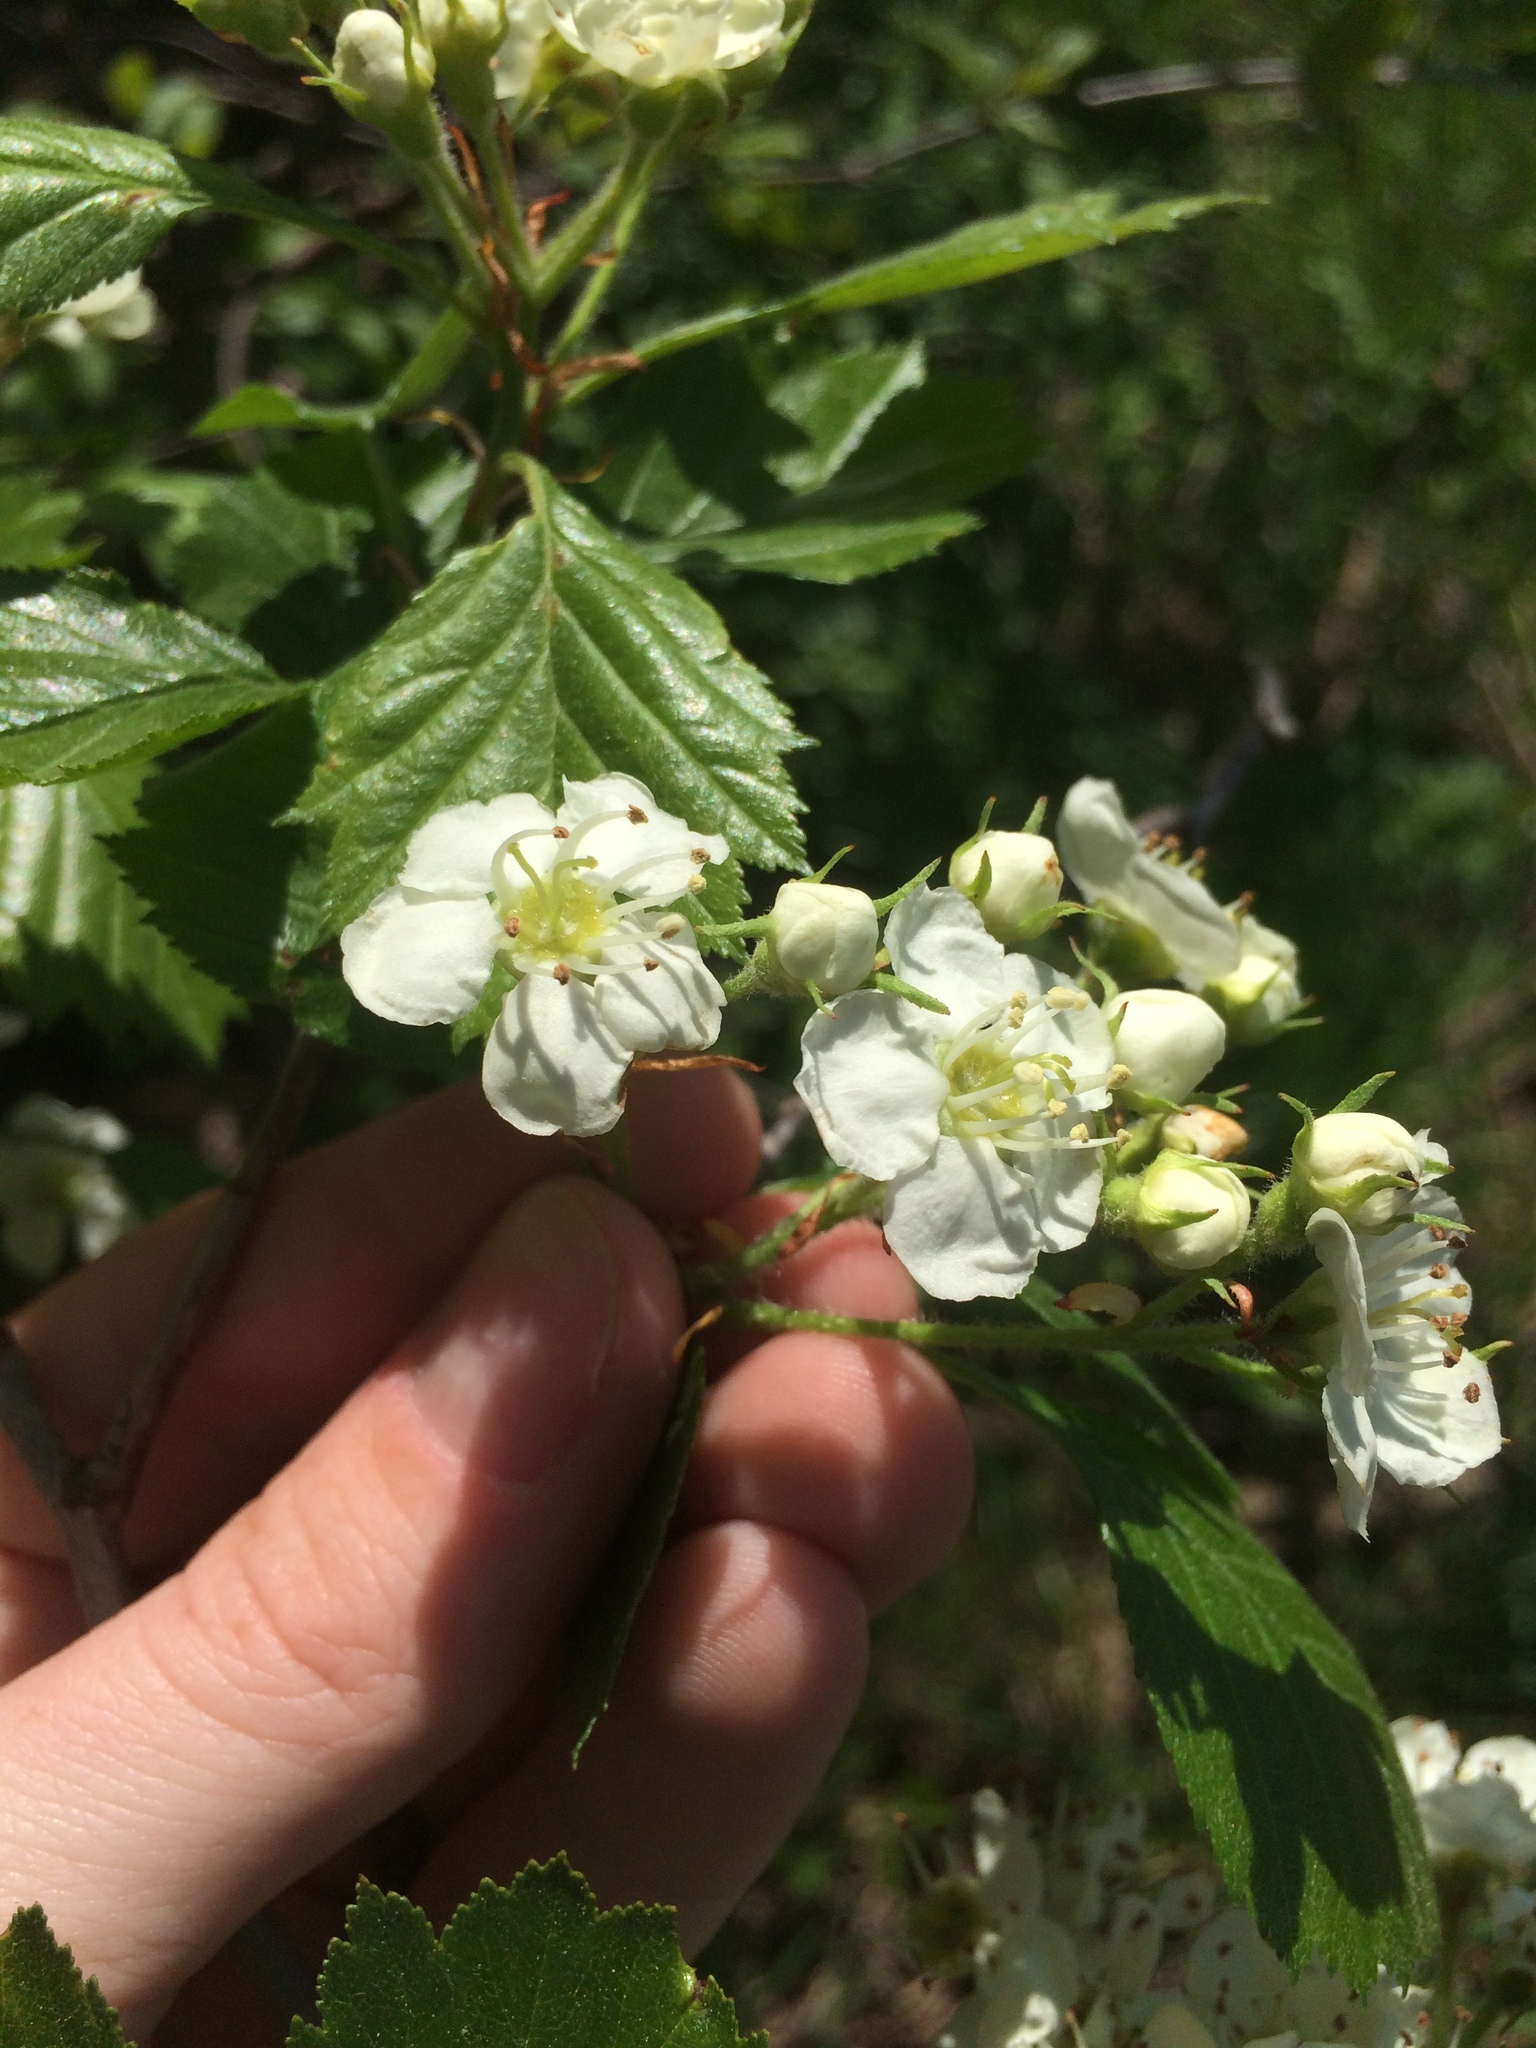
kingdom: Plantae
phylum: Tracheophyta
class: Magnoliopsida
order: Rosales
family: Rosaceae
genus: Crataegus
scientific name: Crataegus chrysocarpa
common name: Fire-berry hawthorn
